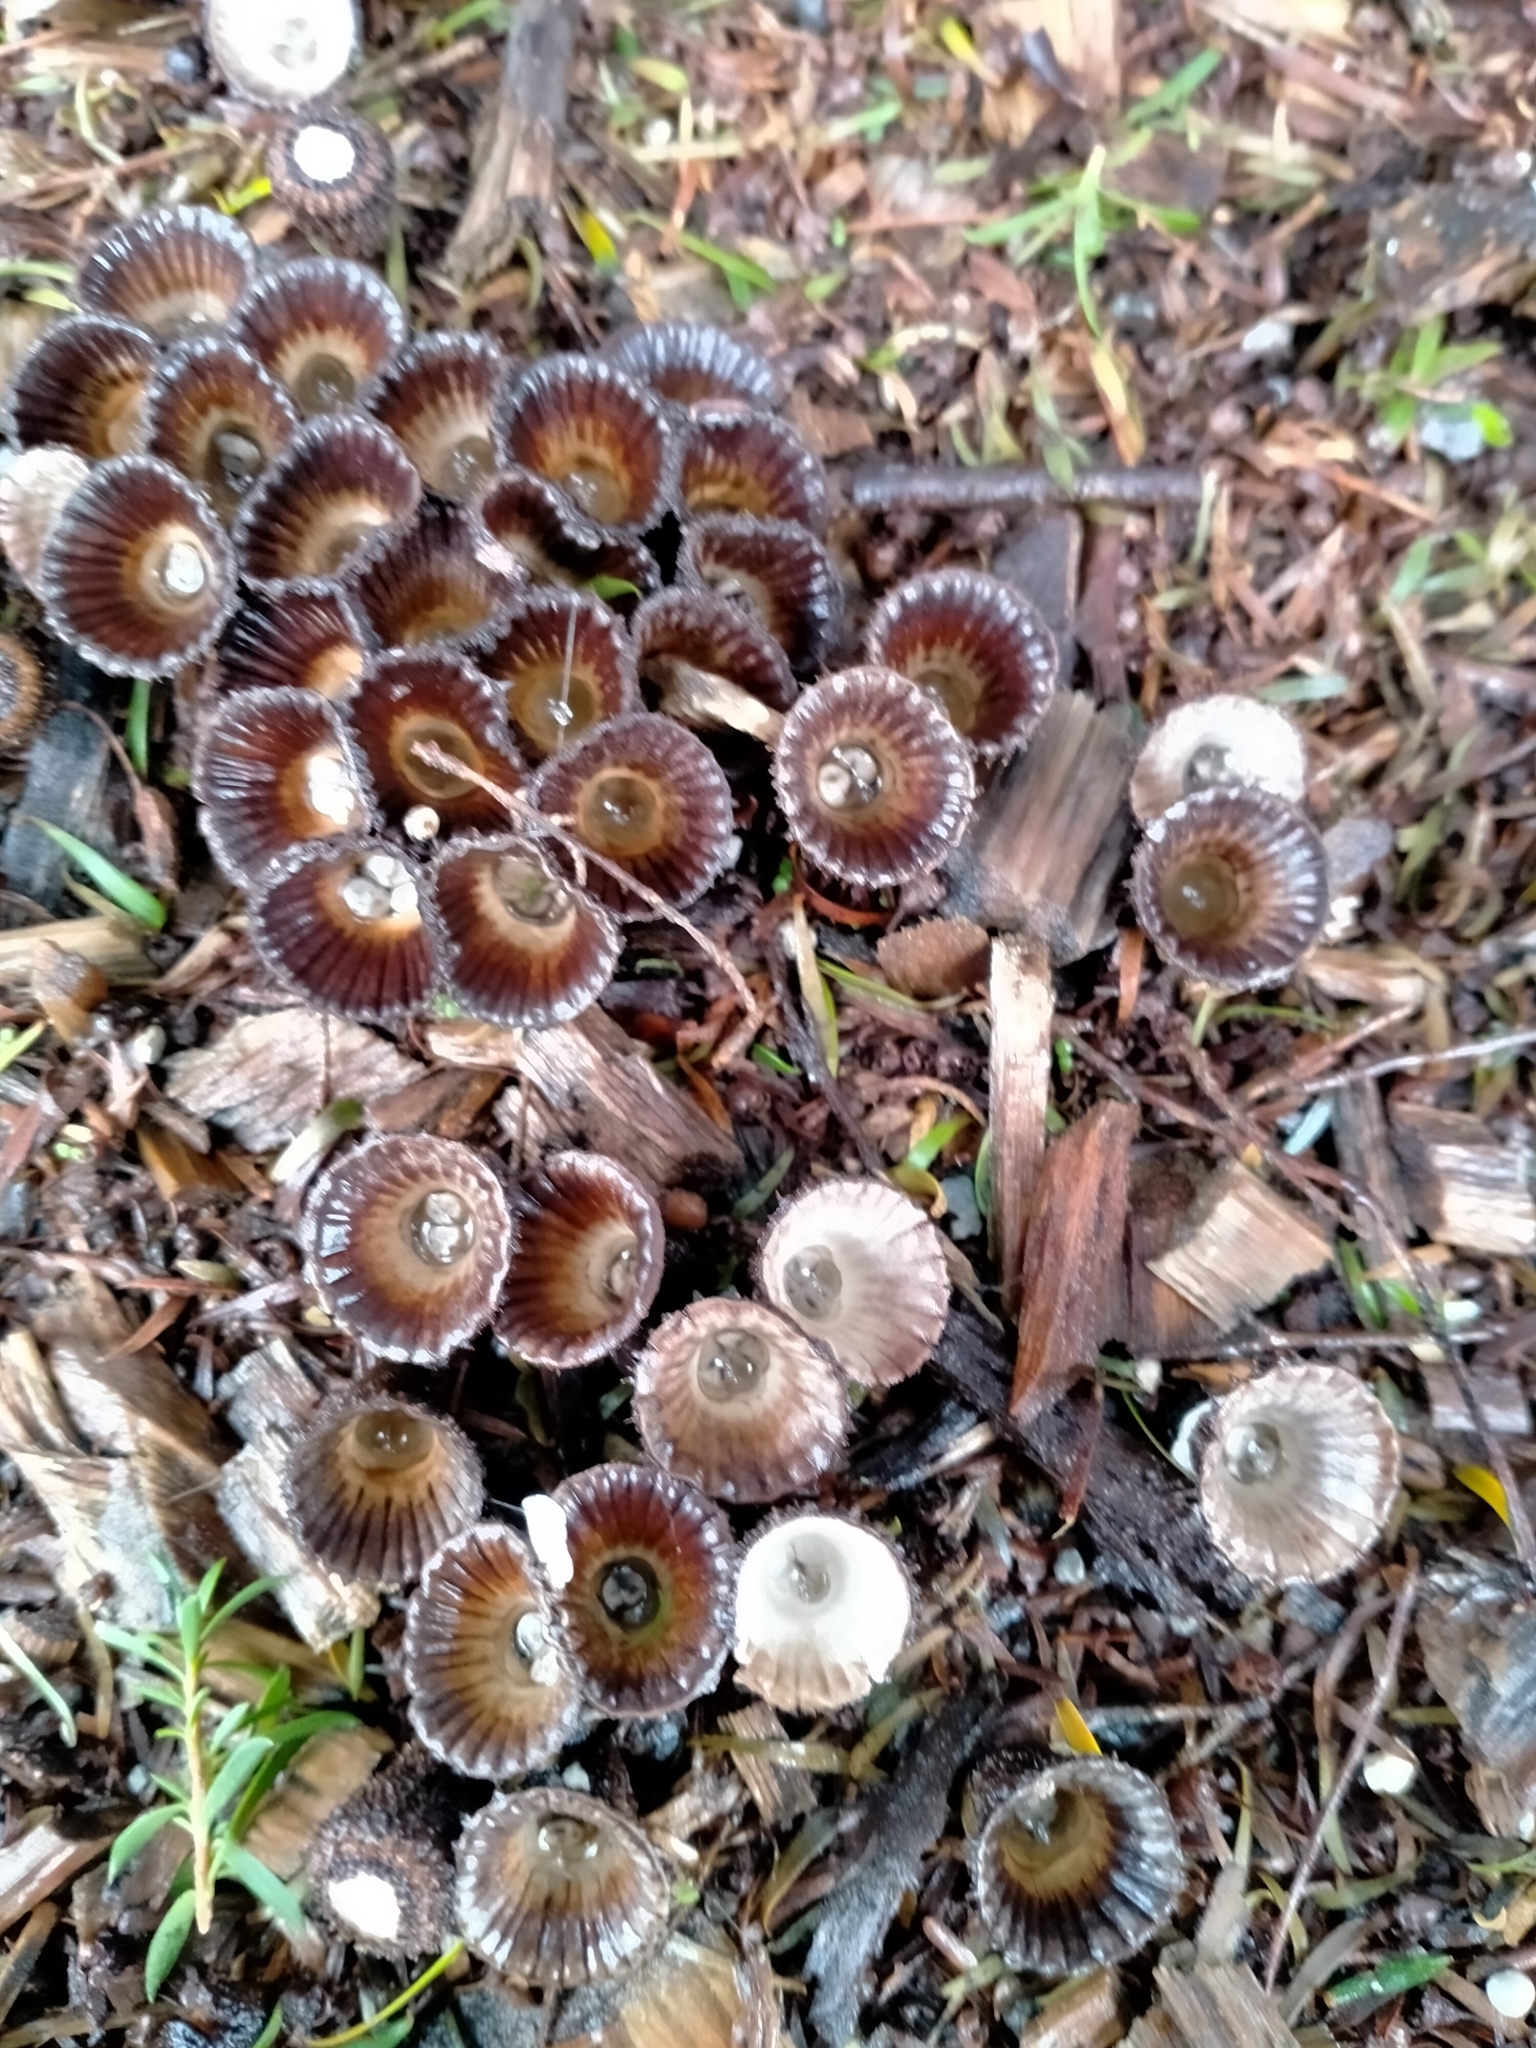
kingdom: Fungi
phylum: Basidiomycota
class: Agaricomycetes
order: Agaricales
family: Agaricaceae
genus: Cyathus
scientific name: Cyathus striatus
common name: Fluted bird's nest
